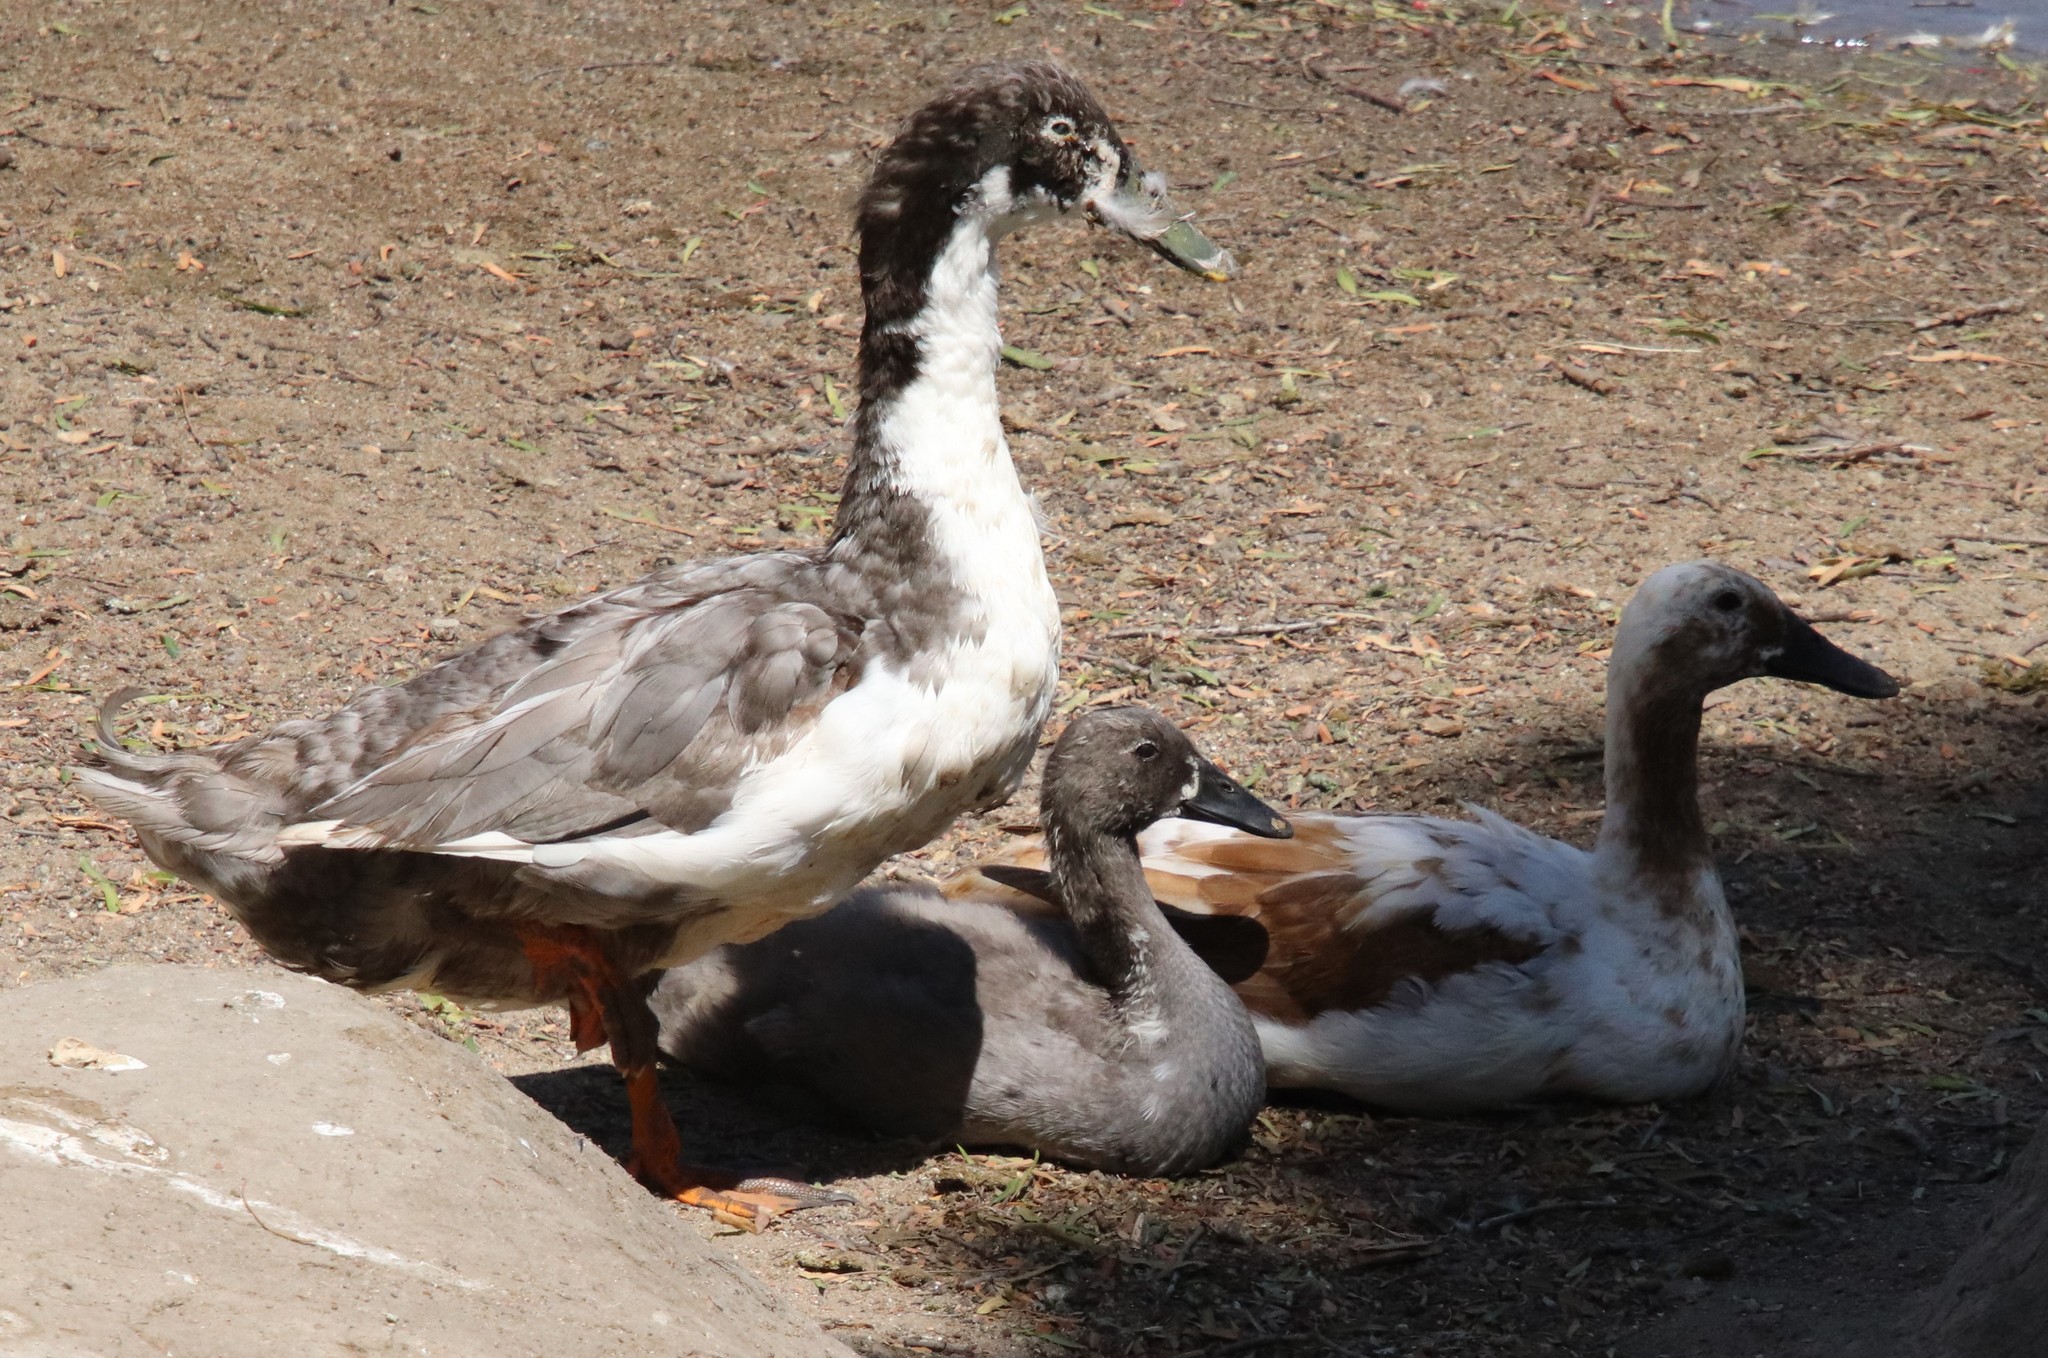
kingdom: Animalia
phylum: Chordata
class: Aves
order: Anseriformes
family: Anatidae
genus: Anas
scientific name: Anas platyrhynchos
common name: Mallard
